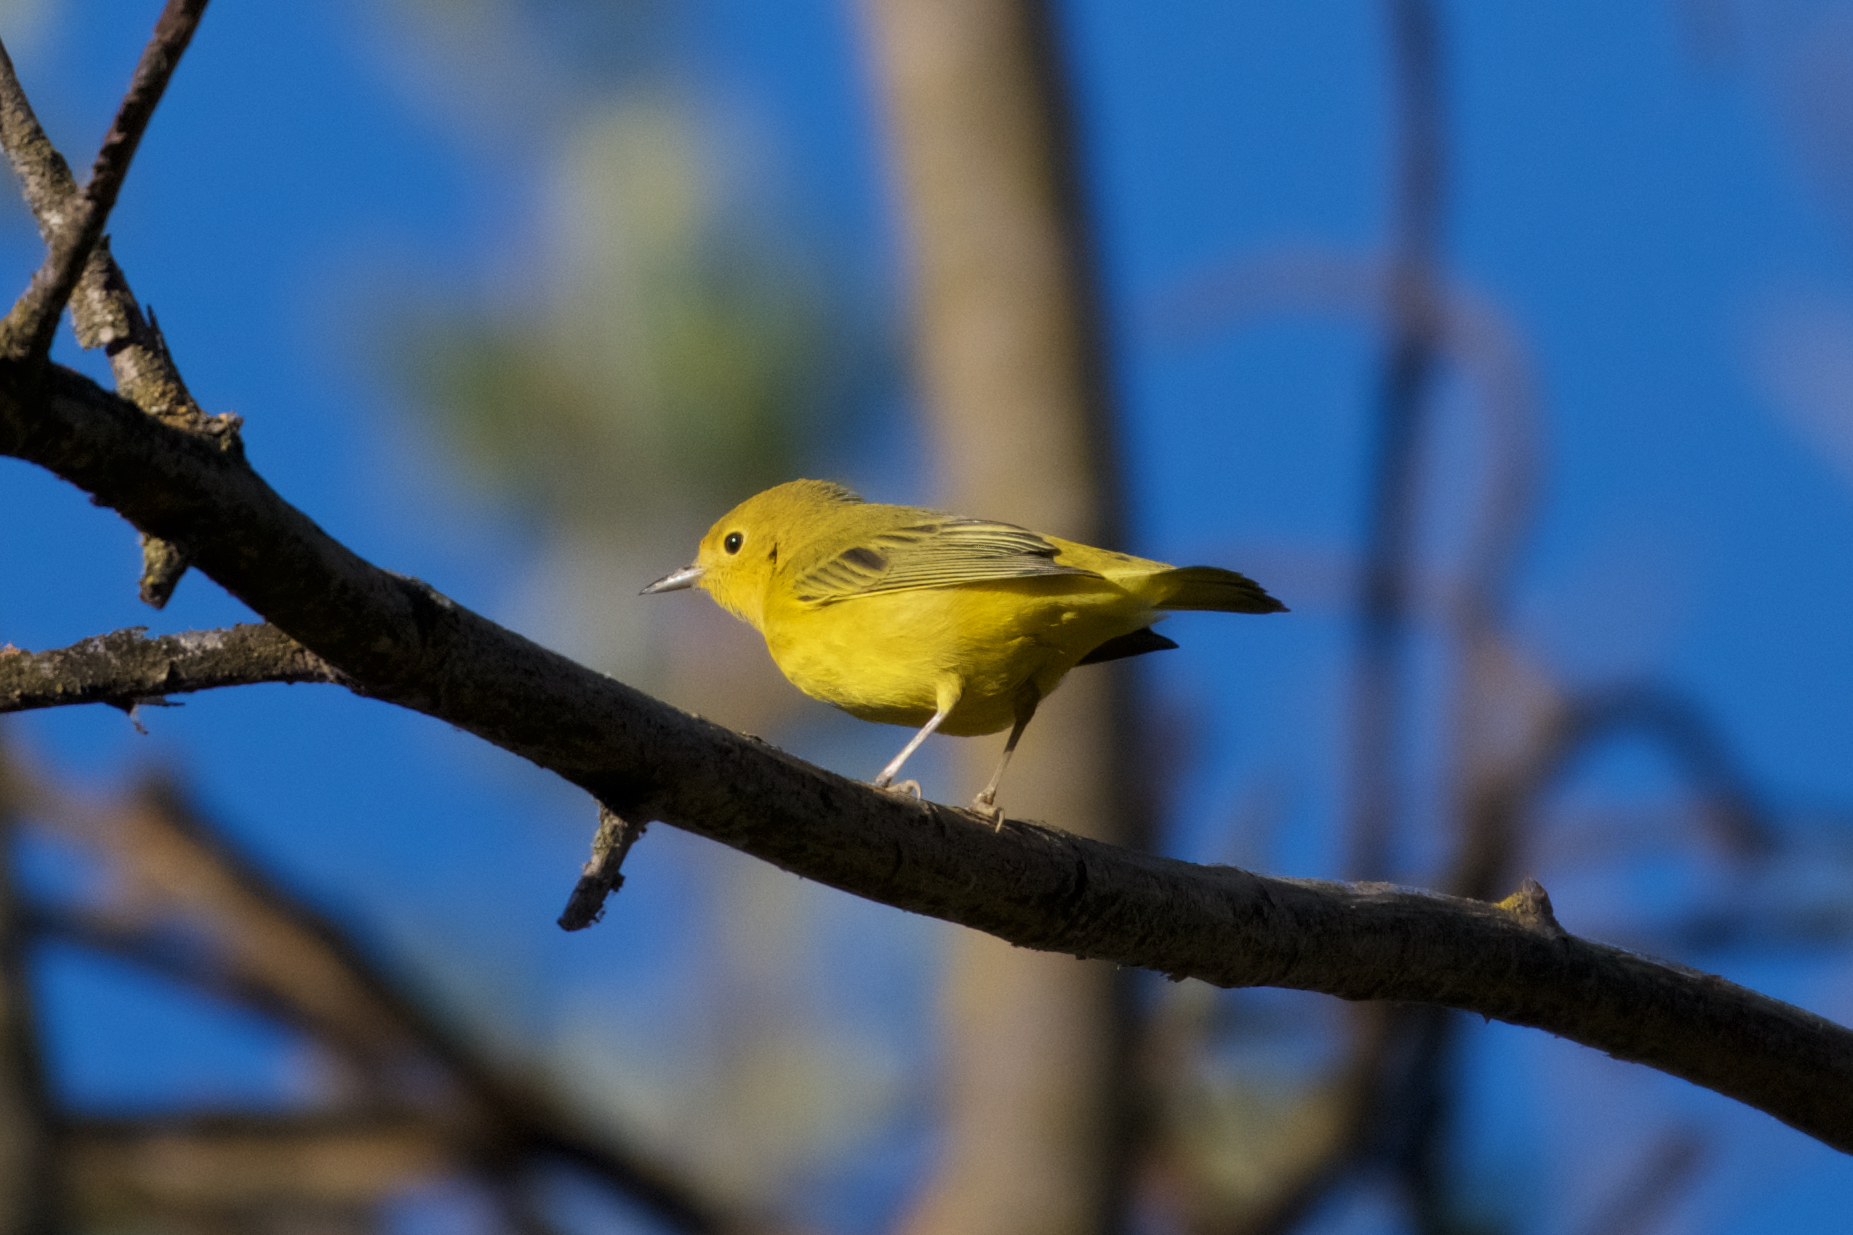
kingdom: Animalia
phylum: Chordata
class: Aves
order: Passeriformes
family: Parulidae
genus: Setophaga
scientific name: Setophaga petechia
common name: Yellow warbler
